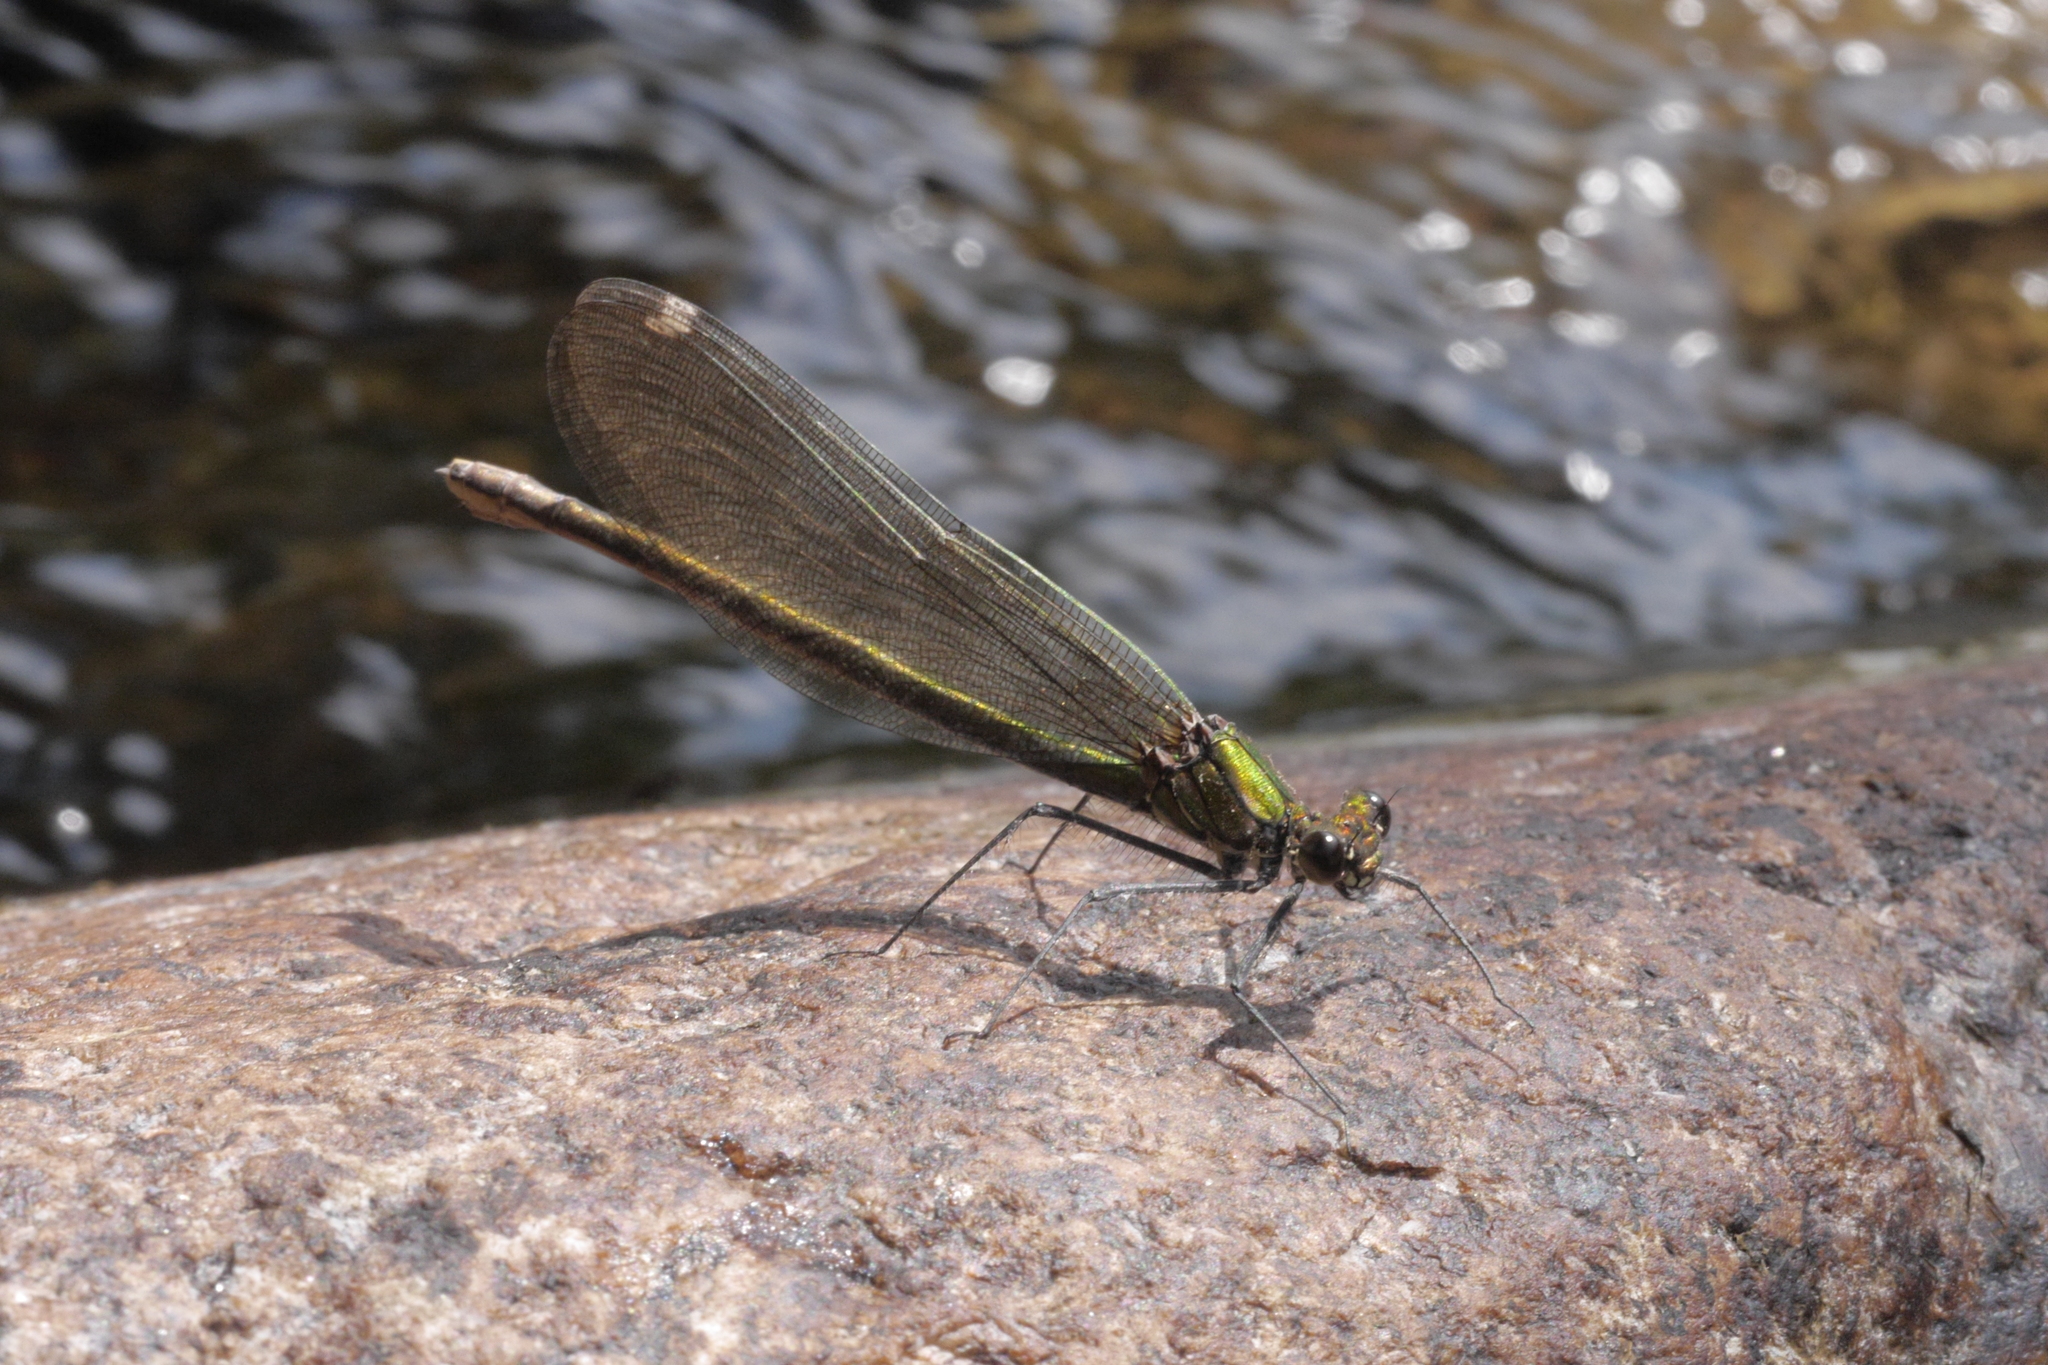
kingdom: Animalia
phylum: Arthropoda
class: Insecta
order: Odonata
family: Calopterygidae
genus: Calopteryx
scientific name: Calopteryx splendens
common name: Banded demoiselle
